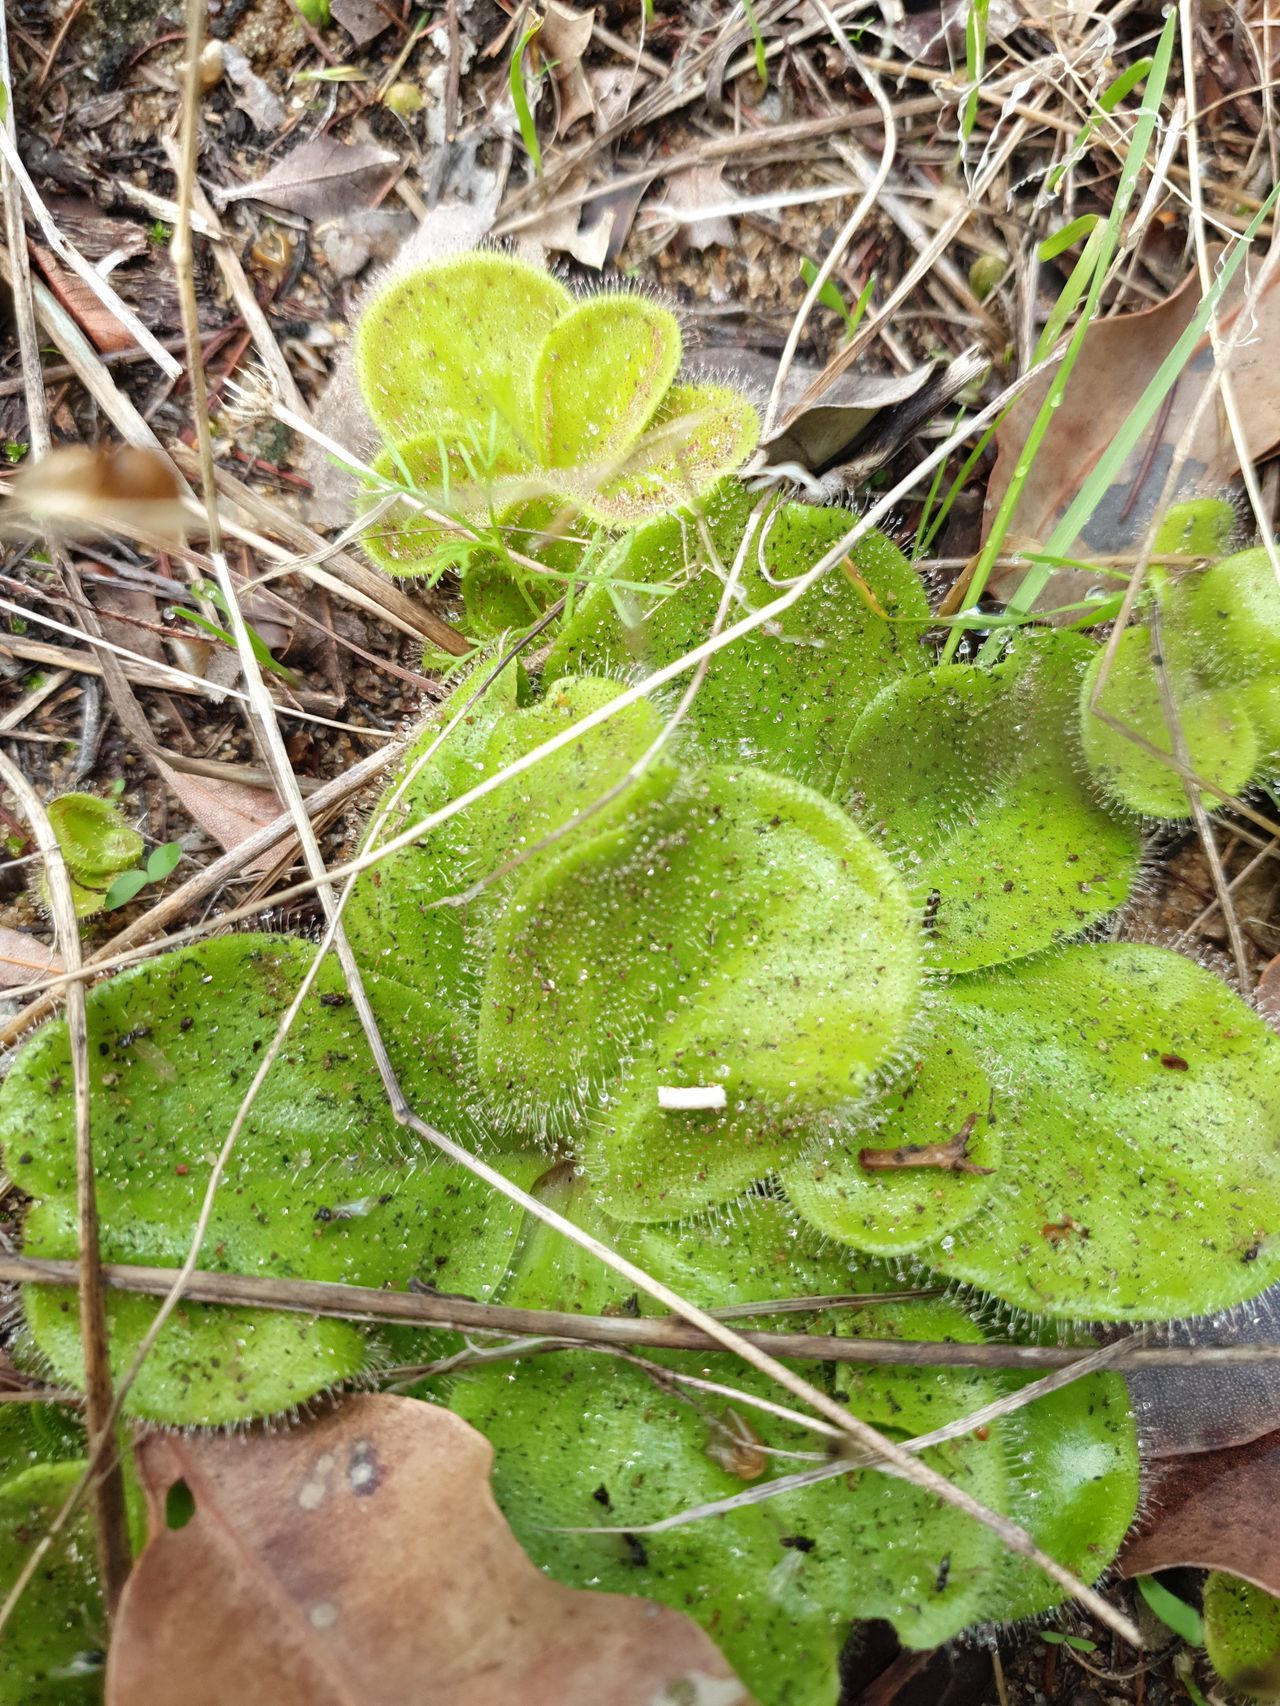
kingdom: Plantae
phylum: Tracheophyta
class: Magnoliopsida
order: Caryophyllales
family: Droseraceae
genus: Drosera
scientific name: Drosera erythrorhiza
